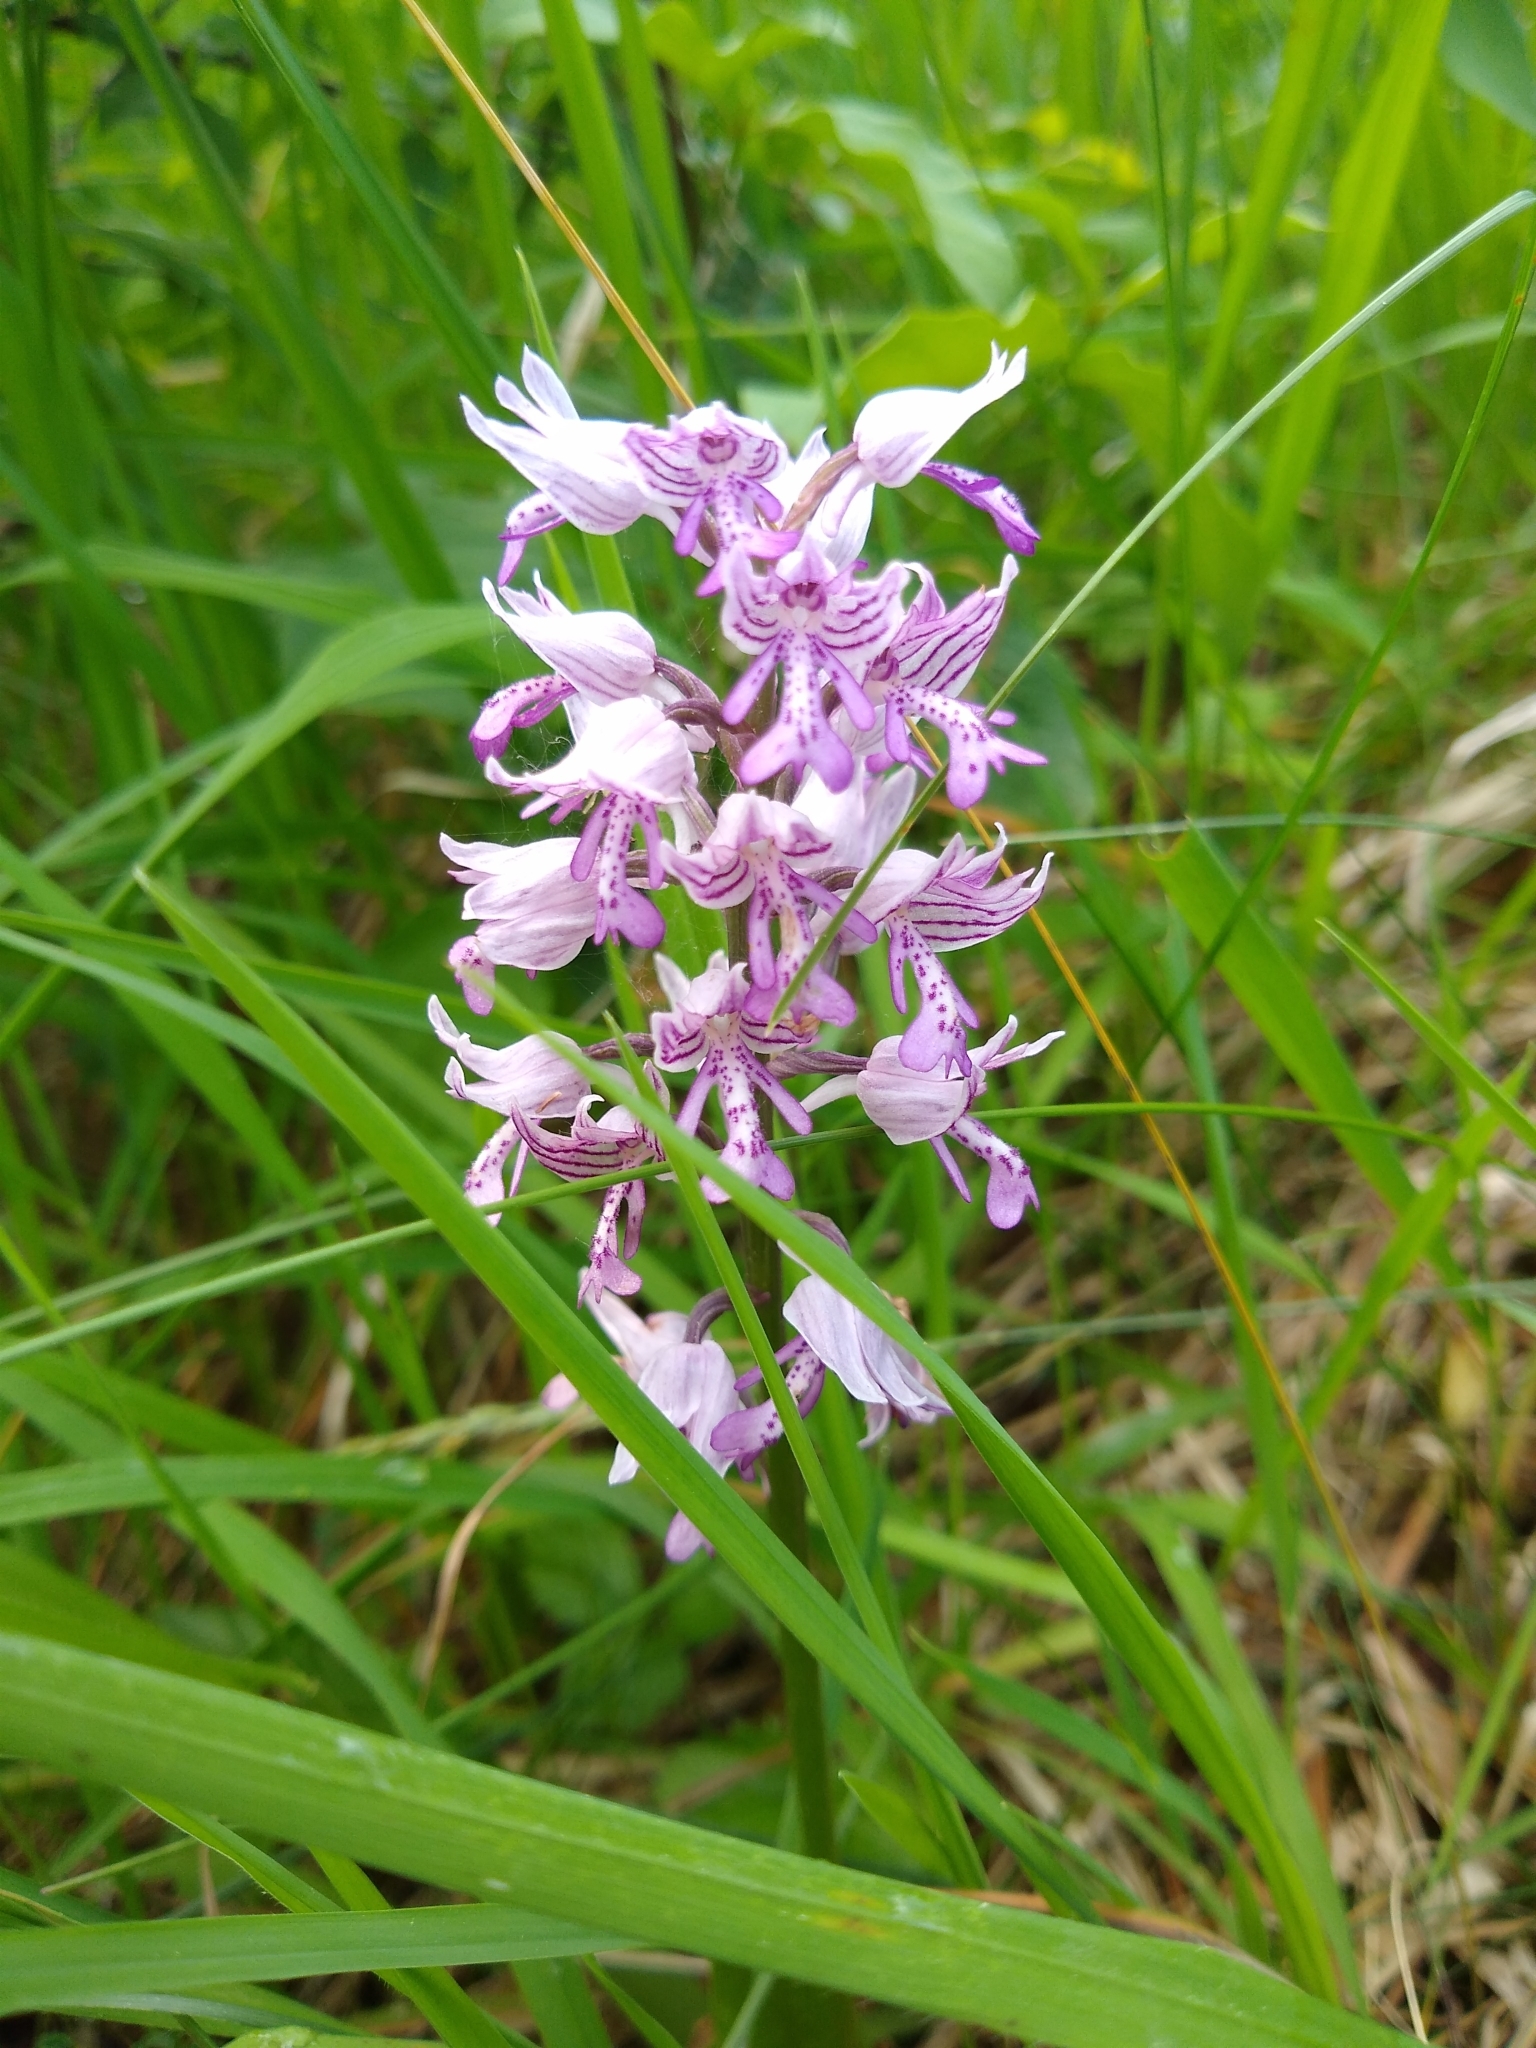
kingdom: Plantae
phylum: Tracheophyta
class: Liliopsida
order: Asparagales
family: Orchidaceae
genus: Orchis
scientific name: Orchis militaris
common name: Military orchid
